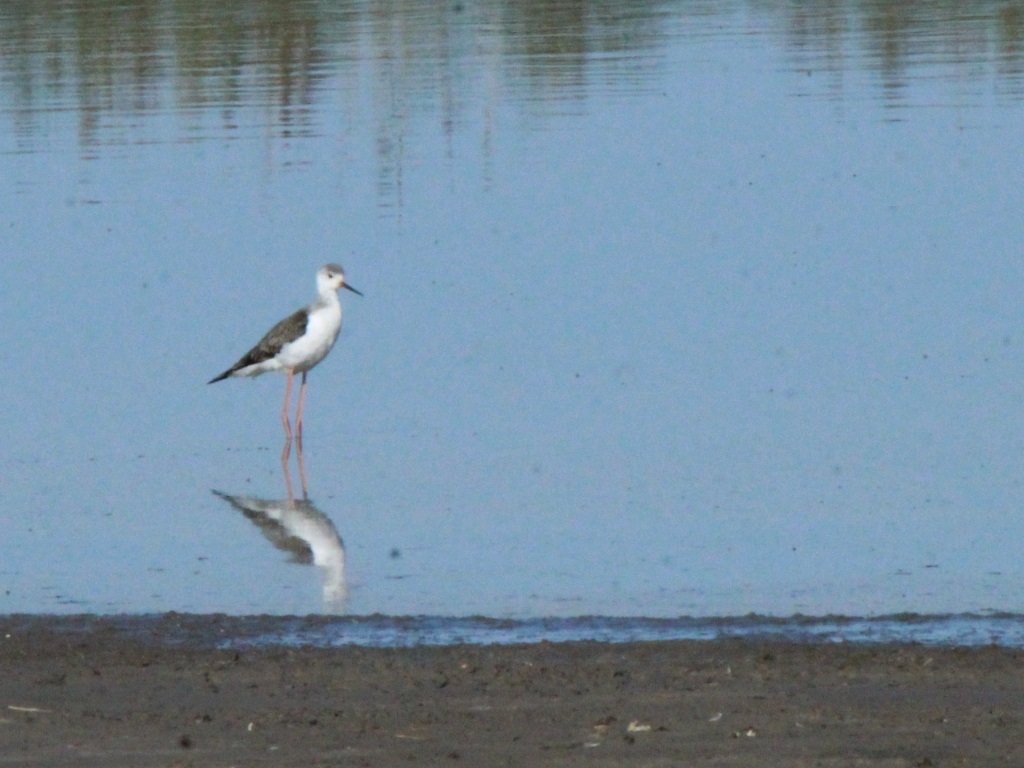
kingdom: Animalia
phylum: Chordata
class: Aves
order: Charadriiformes
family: Recurvirostridae
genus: Himantopus
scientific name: Himantopus himantopus
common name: Black-winged stilt
